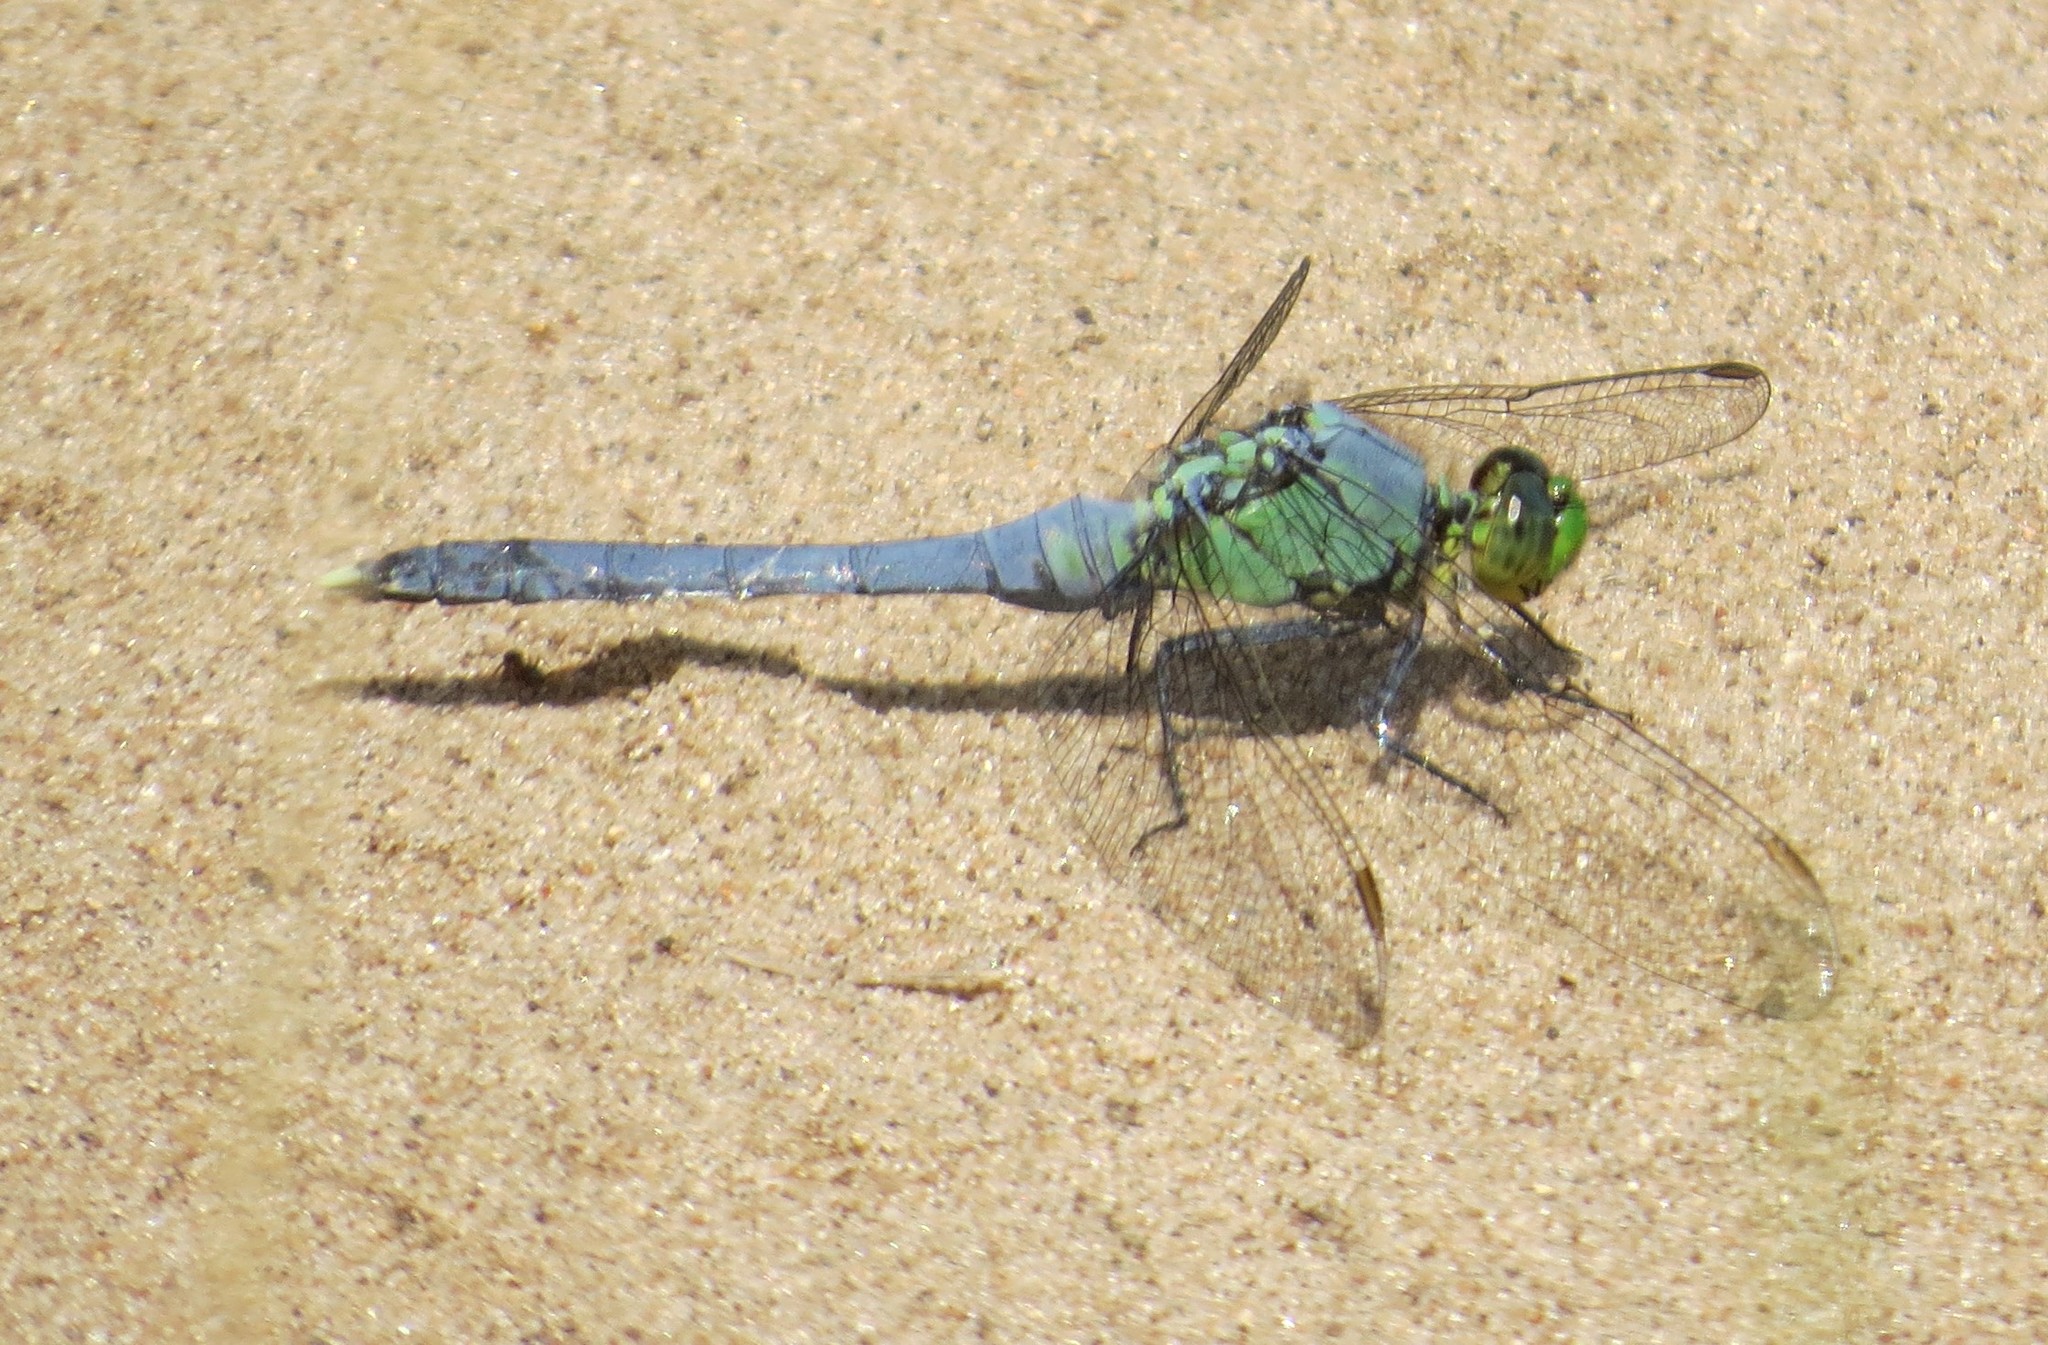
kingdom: Animalia
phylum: Arthropoda
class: Insecta
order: Odonata
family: Libellulidae
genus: Erythemis
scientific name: Erythemis simplicicollis
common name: Eastern pondhawk
